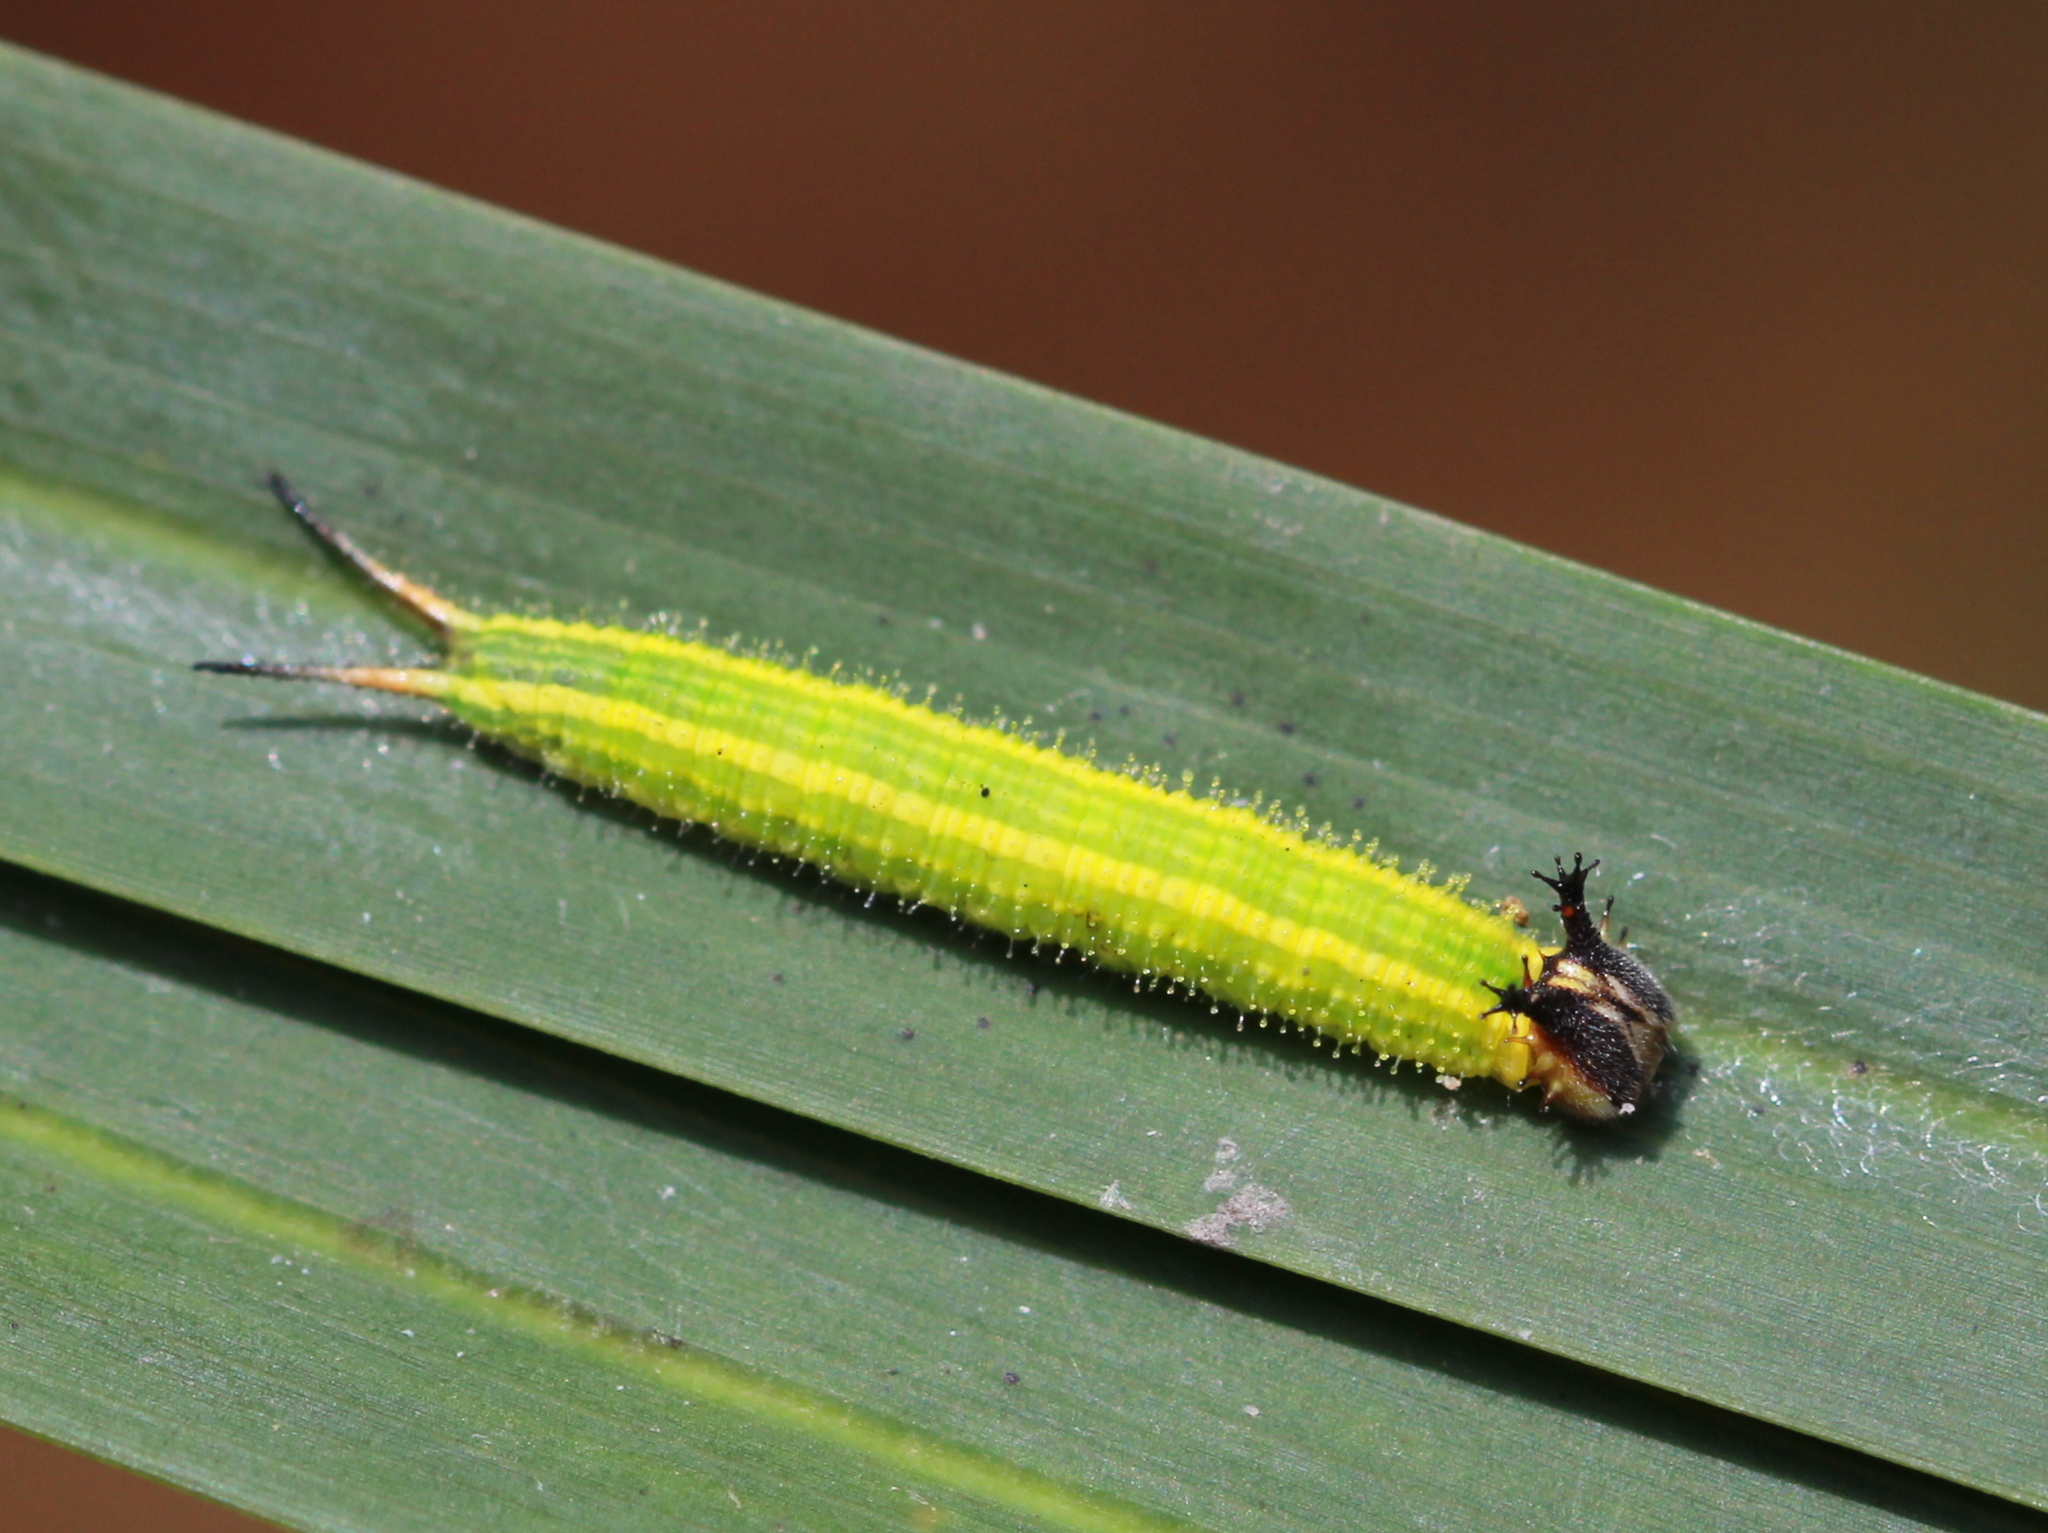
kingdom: Animalia
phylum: Arthropoda
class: Insecta
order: Lepidoptera
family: Nymphalidae
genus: Elymnias
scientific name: Elymnias caudata
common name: Tailed palmfly
